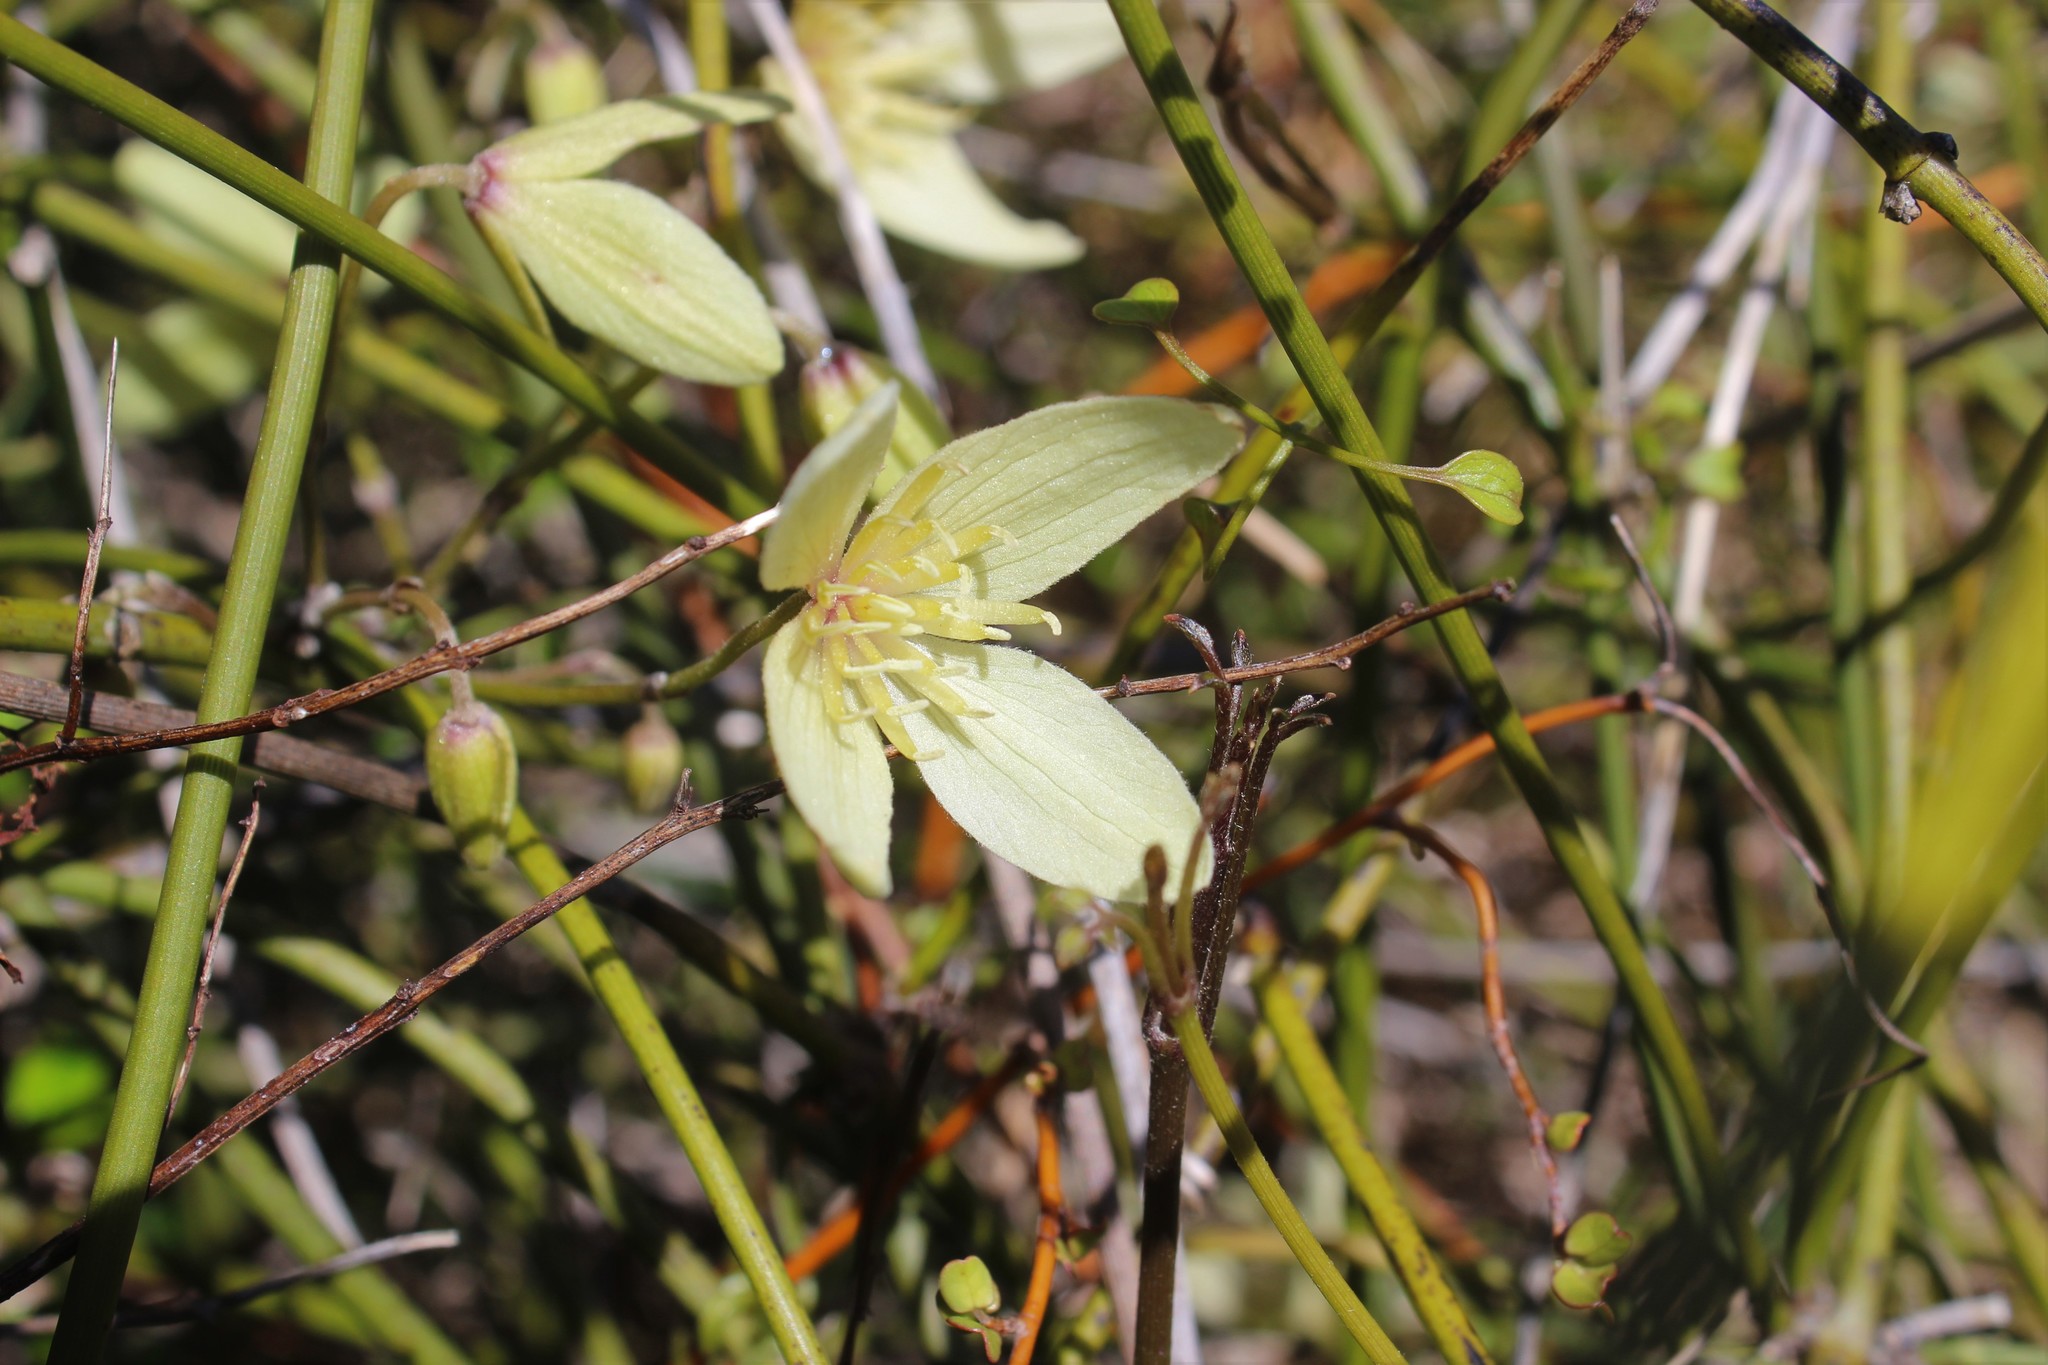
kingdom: Plantae
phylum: Tracheophyta
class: Magnoliopsida
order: Ranunculales
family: Ranunculaceae
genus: Clematis
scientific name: Clematis afoliata
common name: Rush-stem clematis
